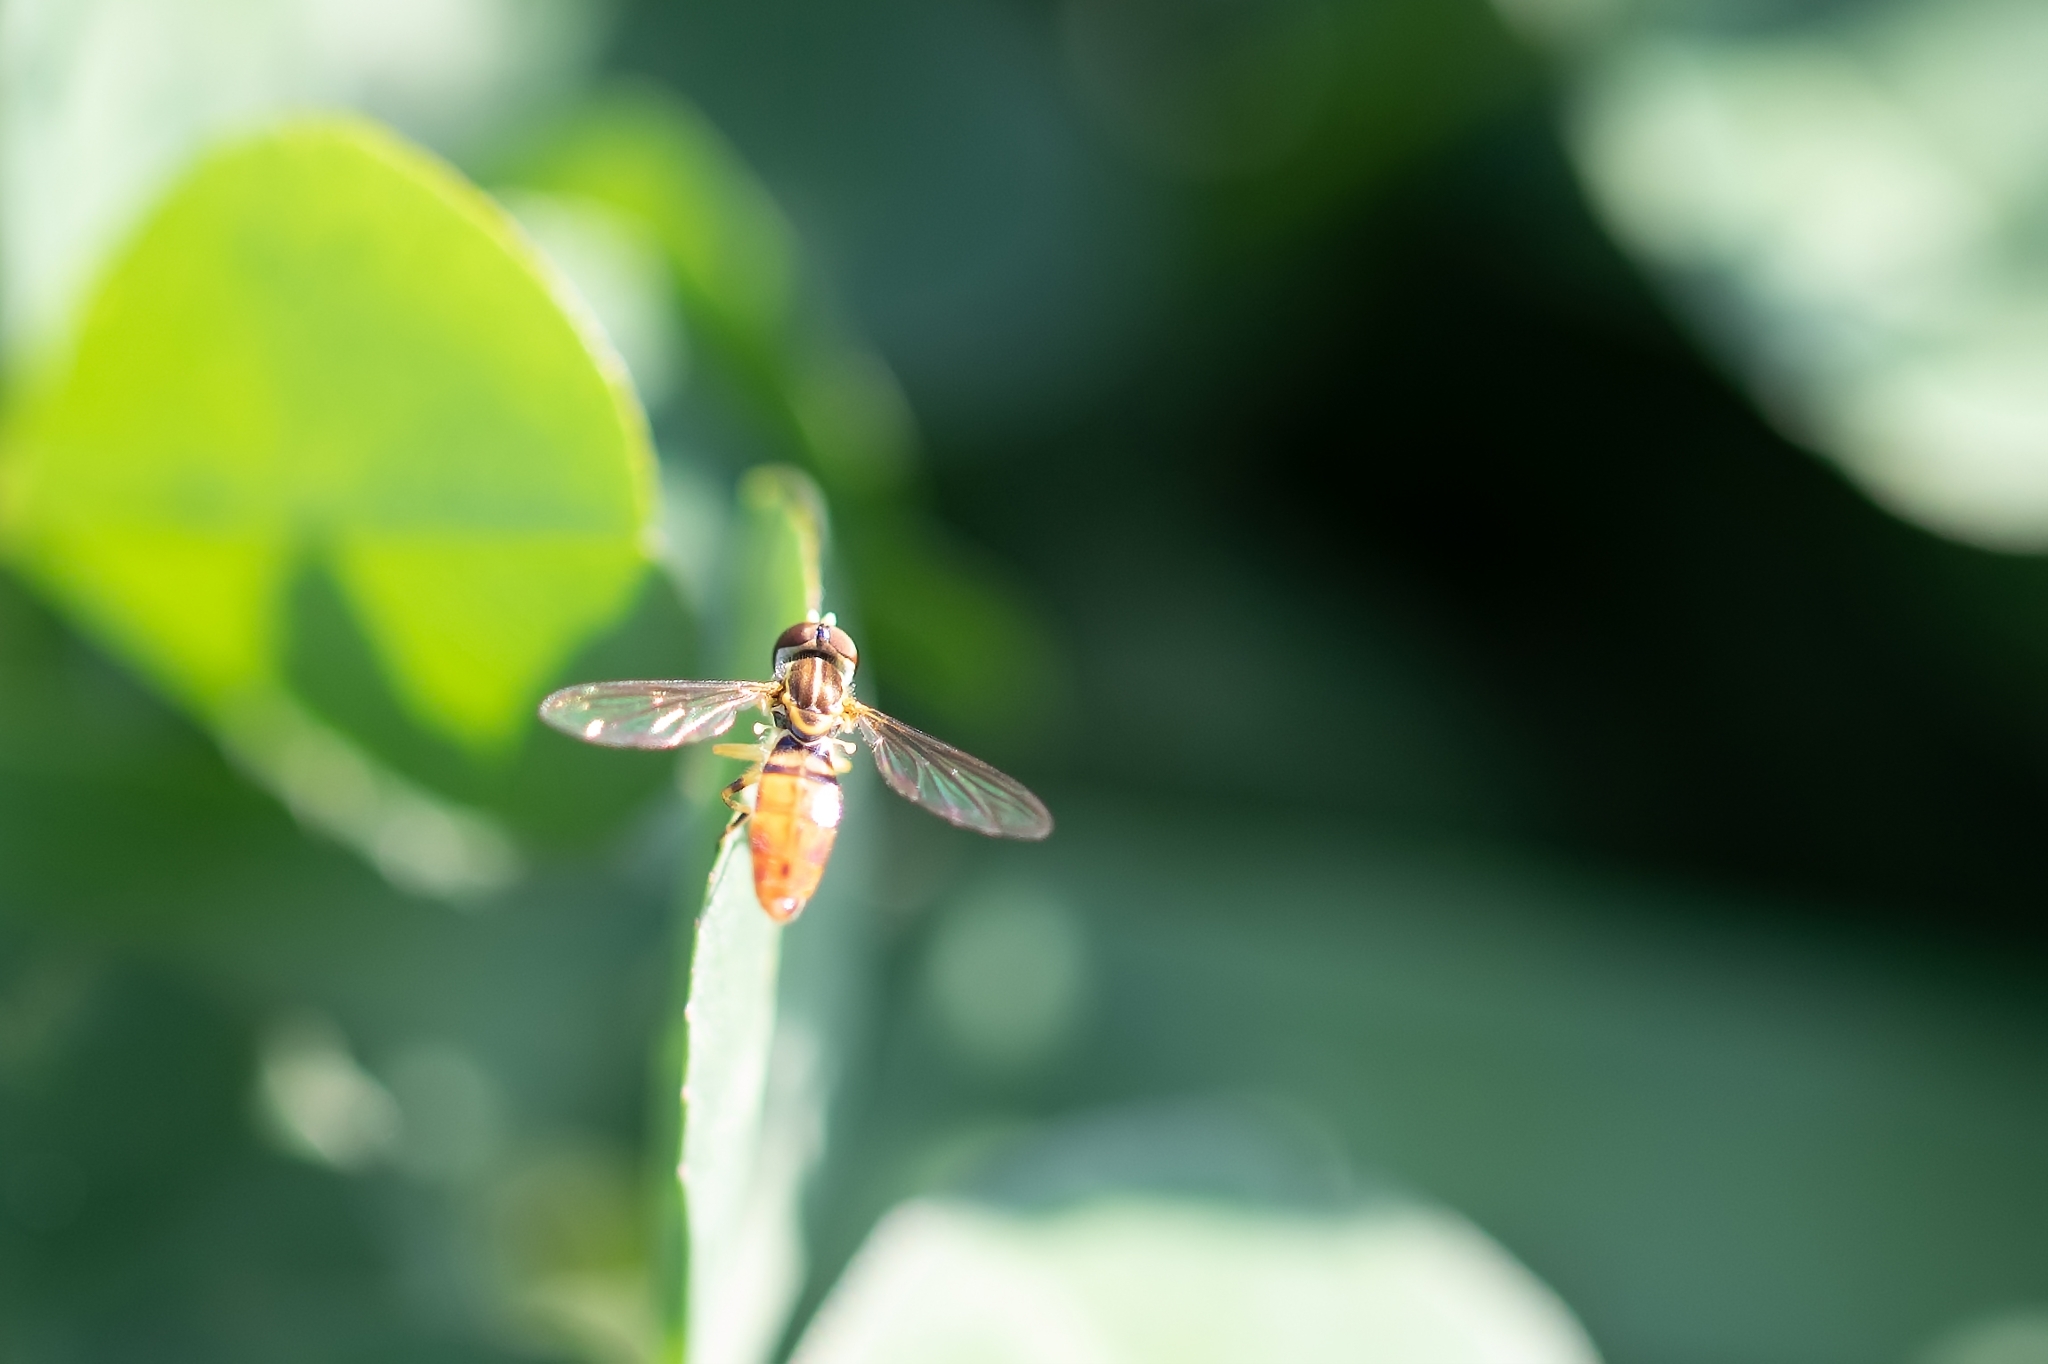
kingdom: Animalia
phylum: Arthropoda
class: Insecta
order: Diptera
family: Syrphidae
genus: Toxomerus
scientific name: Toxomerus floralis
